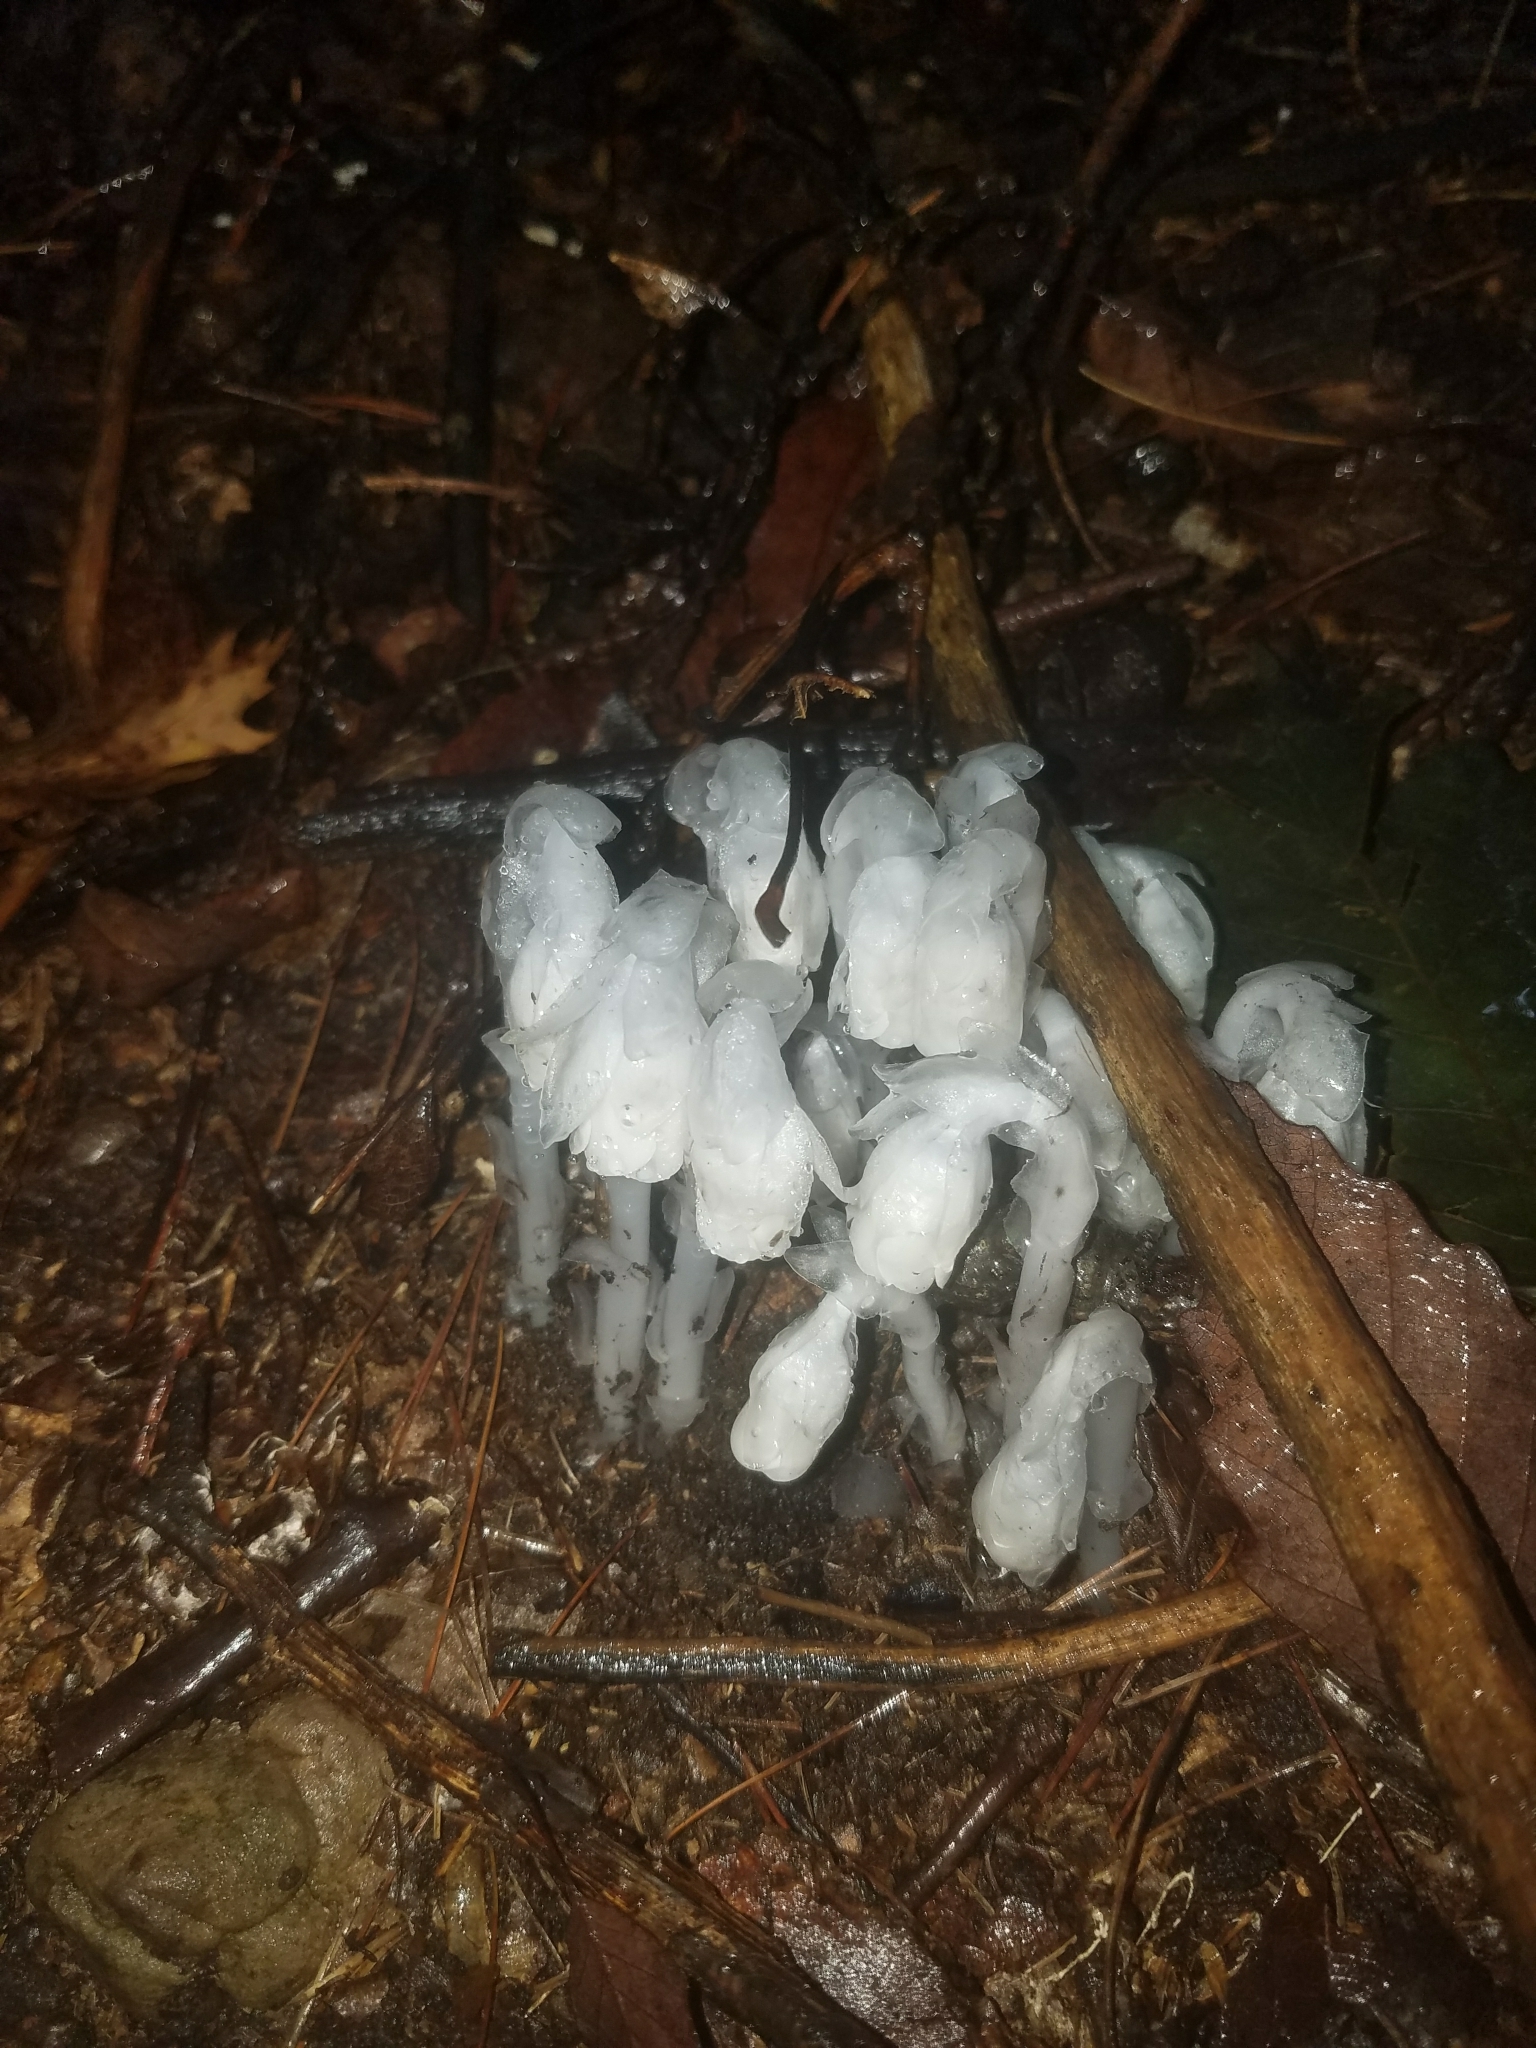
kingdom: Plantae
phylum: Tracheophyta
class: Magnoliopsida
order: Ericales
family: Ericaceae
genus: Monotropa
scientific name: Monotropa uniflora
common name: Convulsion root
